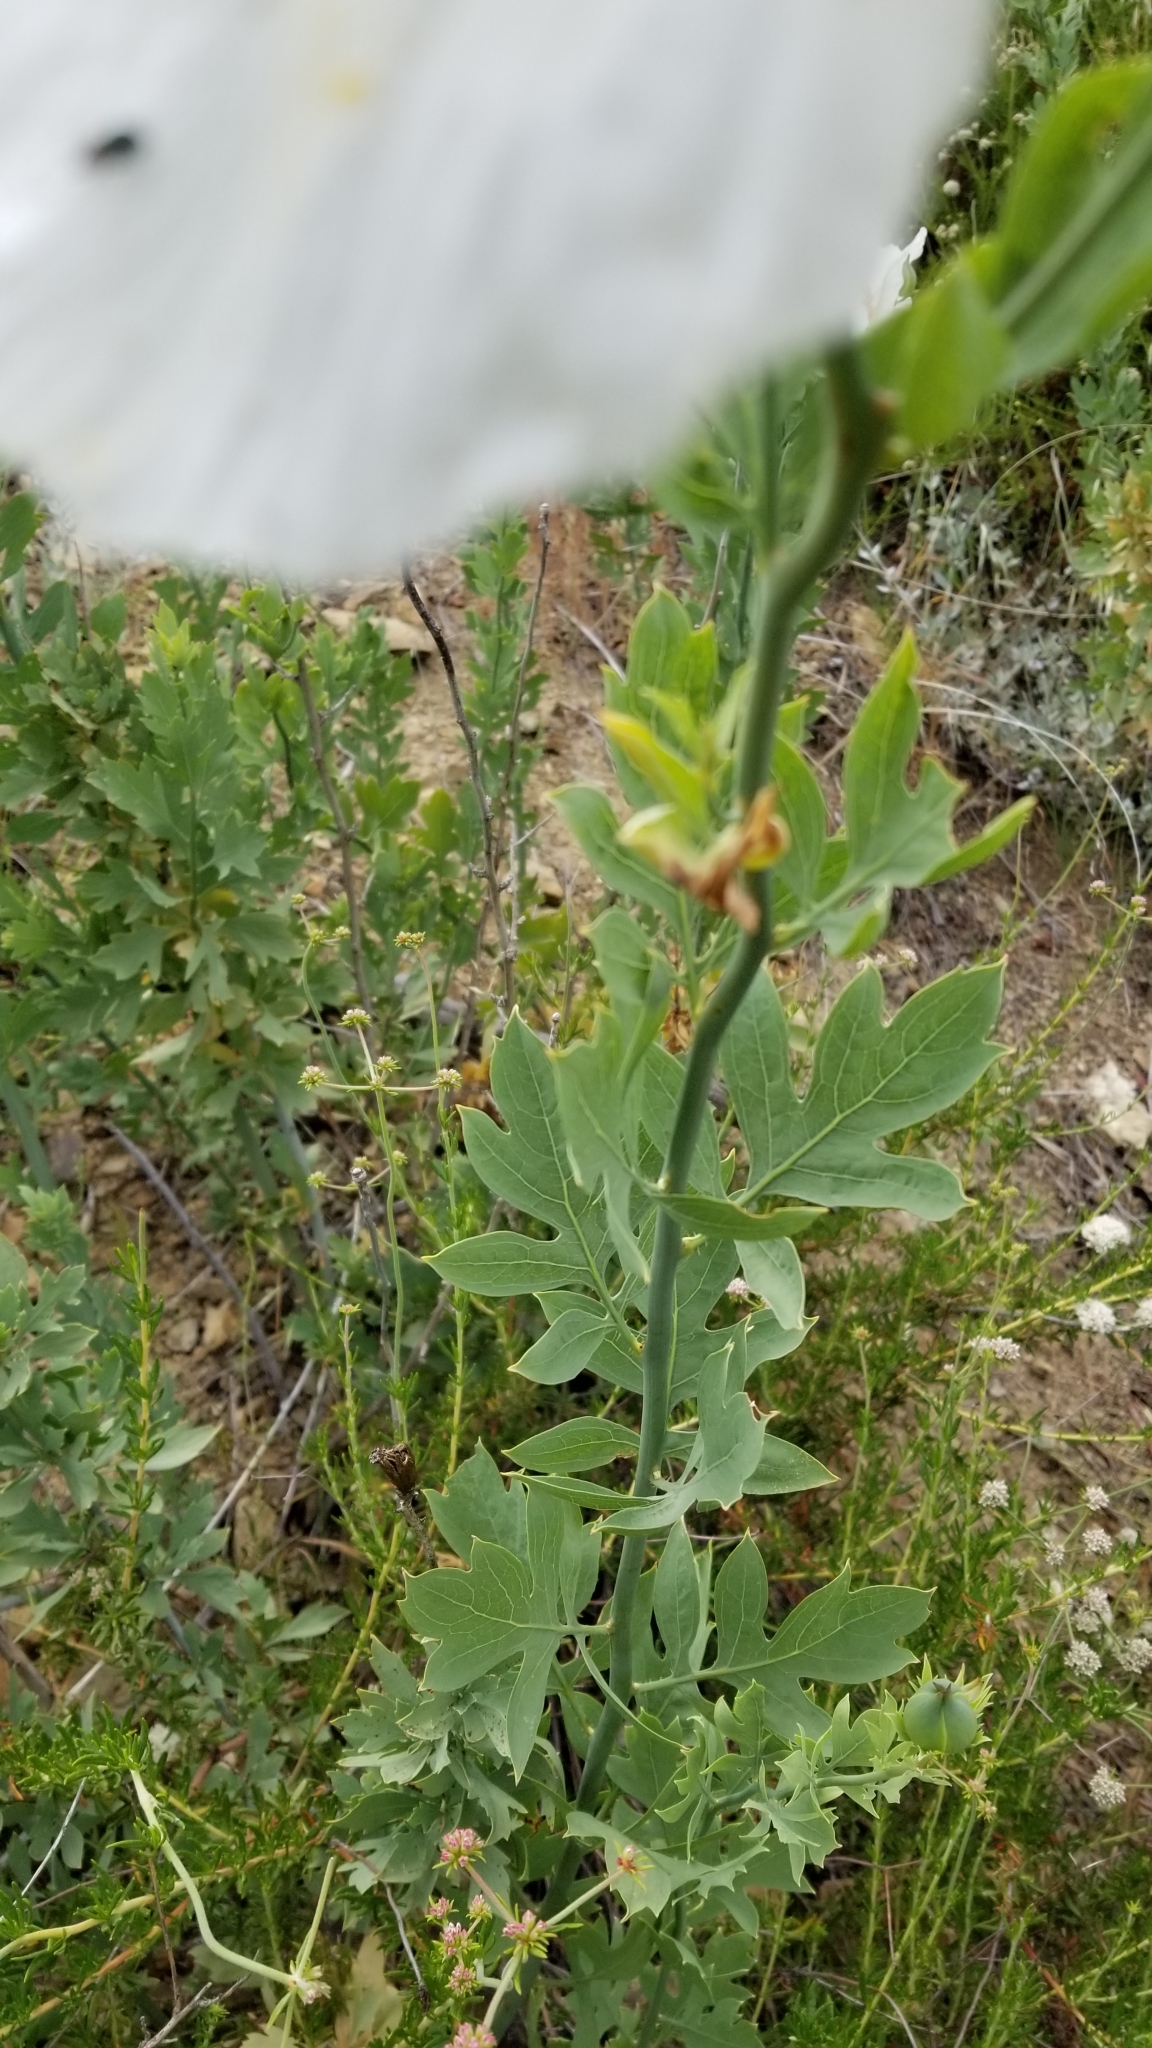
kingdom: Plantae
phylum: Tracheophyta
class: Magnoliopsida
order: Ranunculales
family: Papaveraceae
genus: Romneya
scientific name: Romneya coulteri
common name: California tree-poppy
